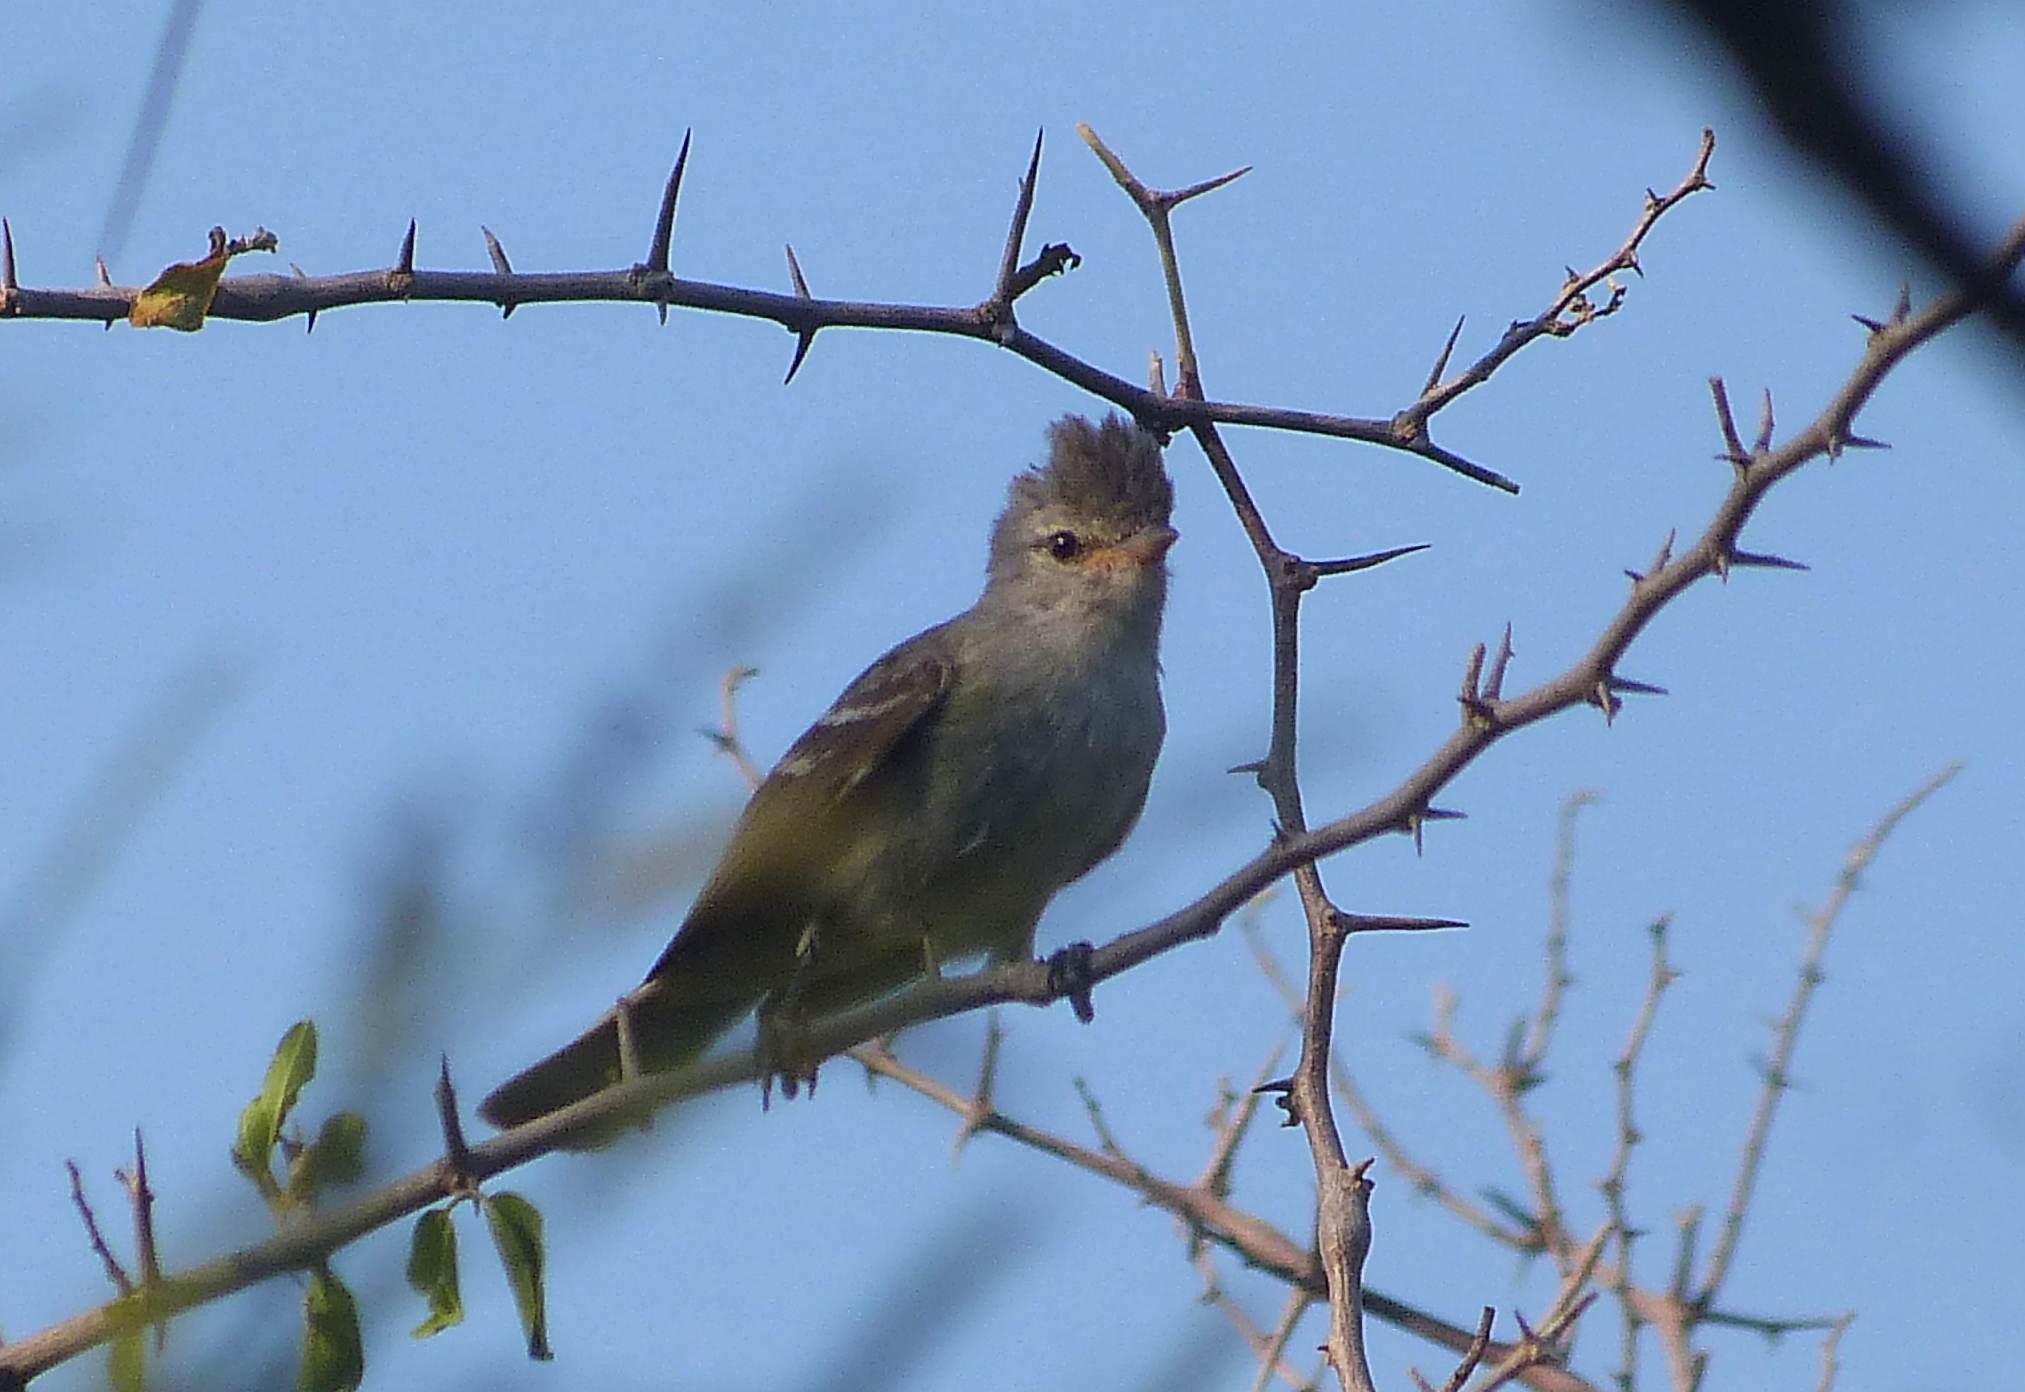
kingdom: Animalia
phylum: Chordata
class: Aves
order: Passeriformes
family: Tyrannidae
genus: Camptostoma
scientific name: Camptostoma obsoletum
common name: Southern beardless-tyrannulet
